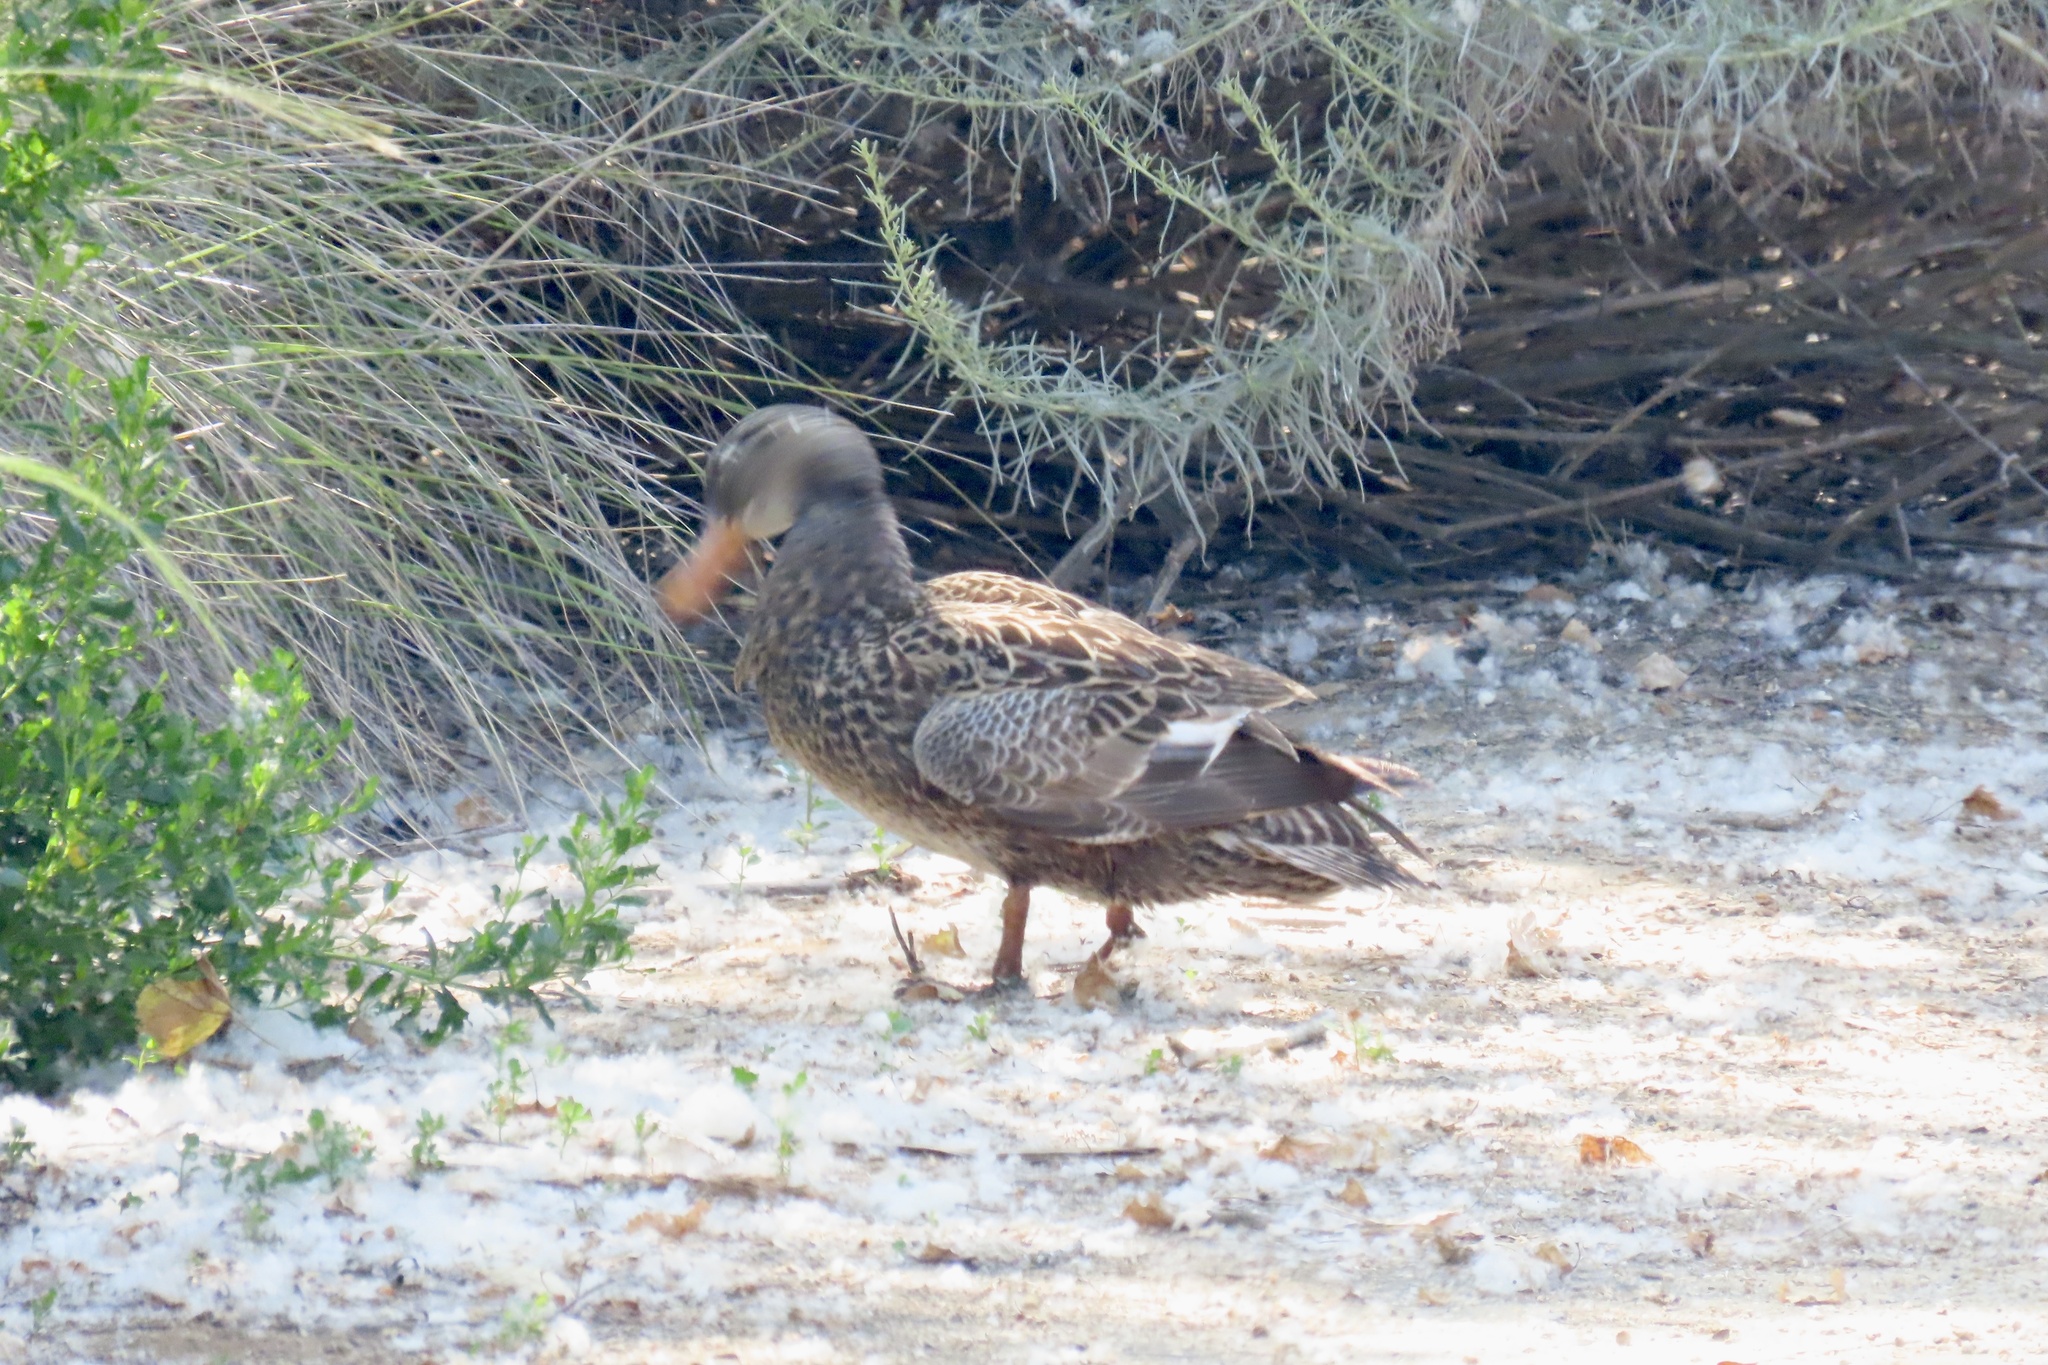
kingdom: Animalia
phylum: Chordata
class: Aves
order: Anseriformes
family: Anatidae
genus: Mareca
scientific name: Mareca strepera
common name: Gadwall
